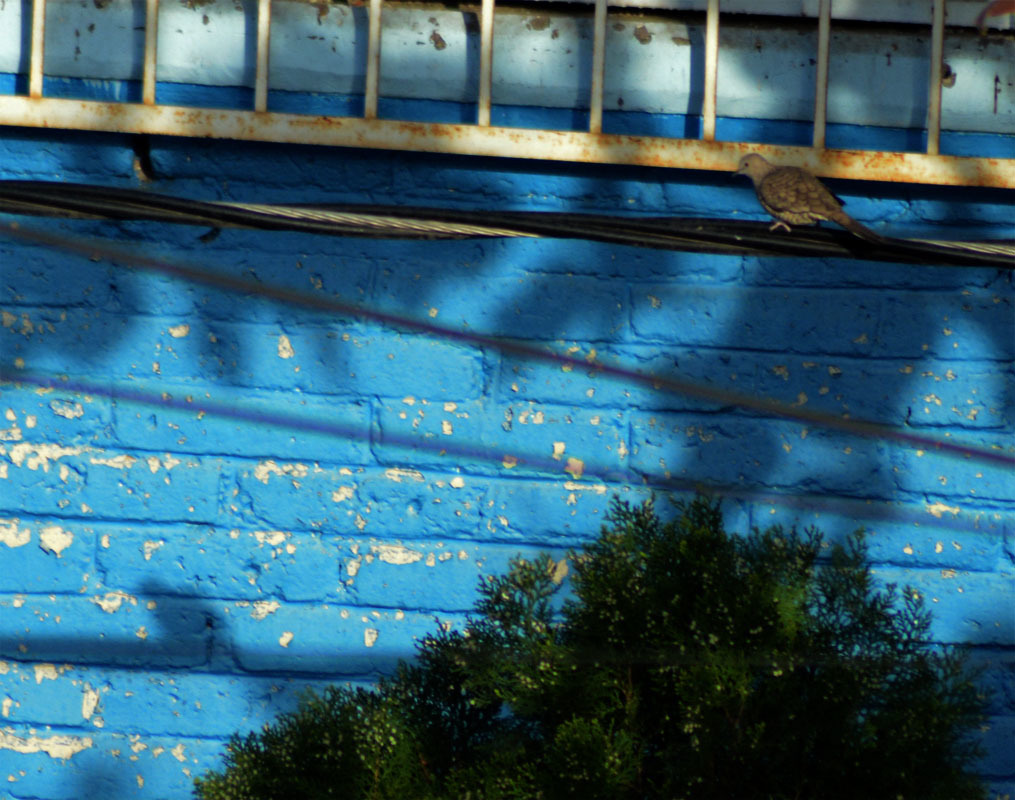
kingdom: Animalia
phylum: Chordata
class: Aves
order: Columbiformes
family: Columbidae
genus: Columbina
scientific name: Columbina inca
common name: Inca dove
